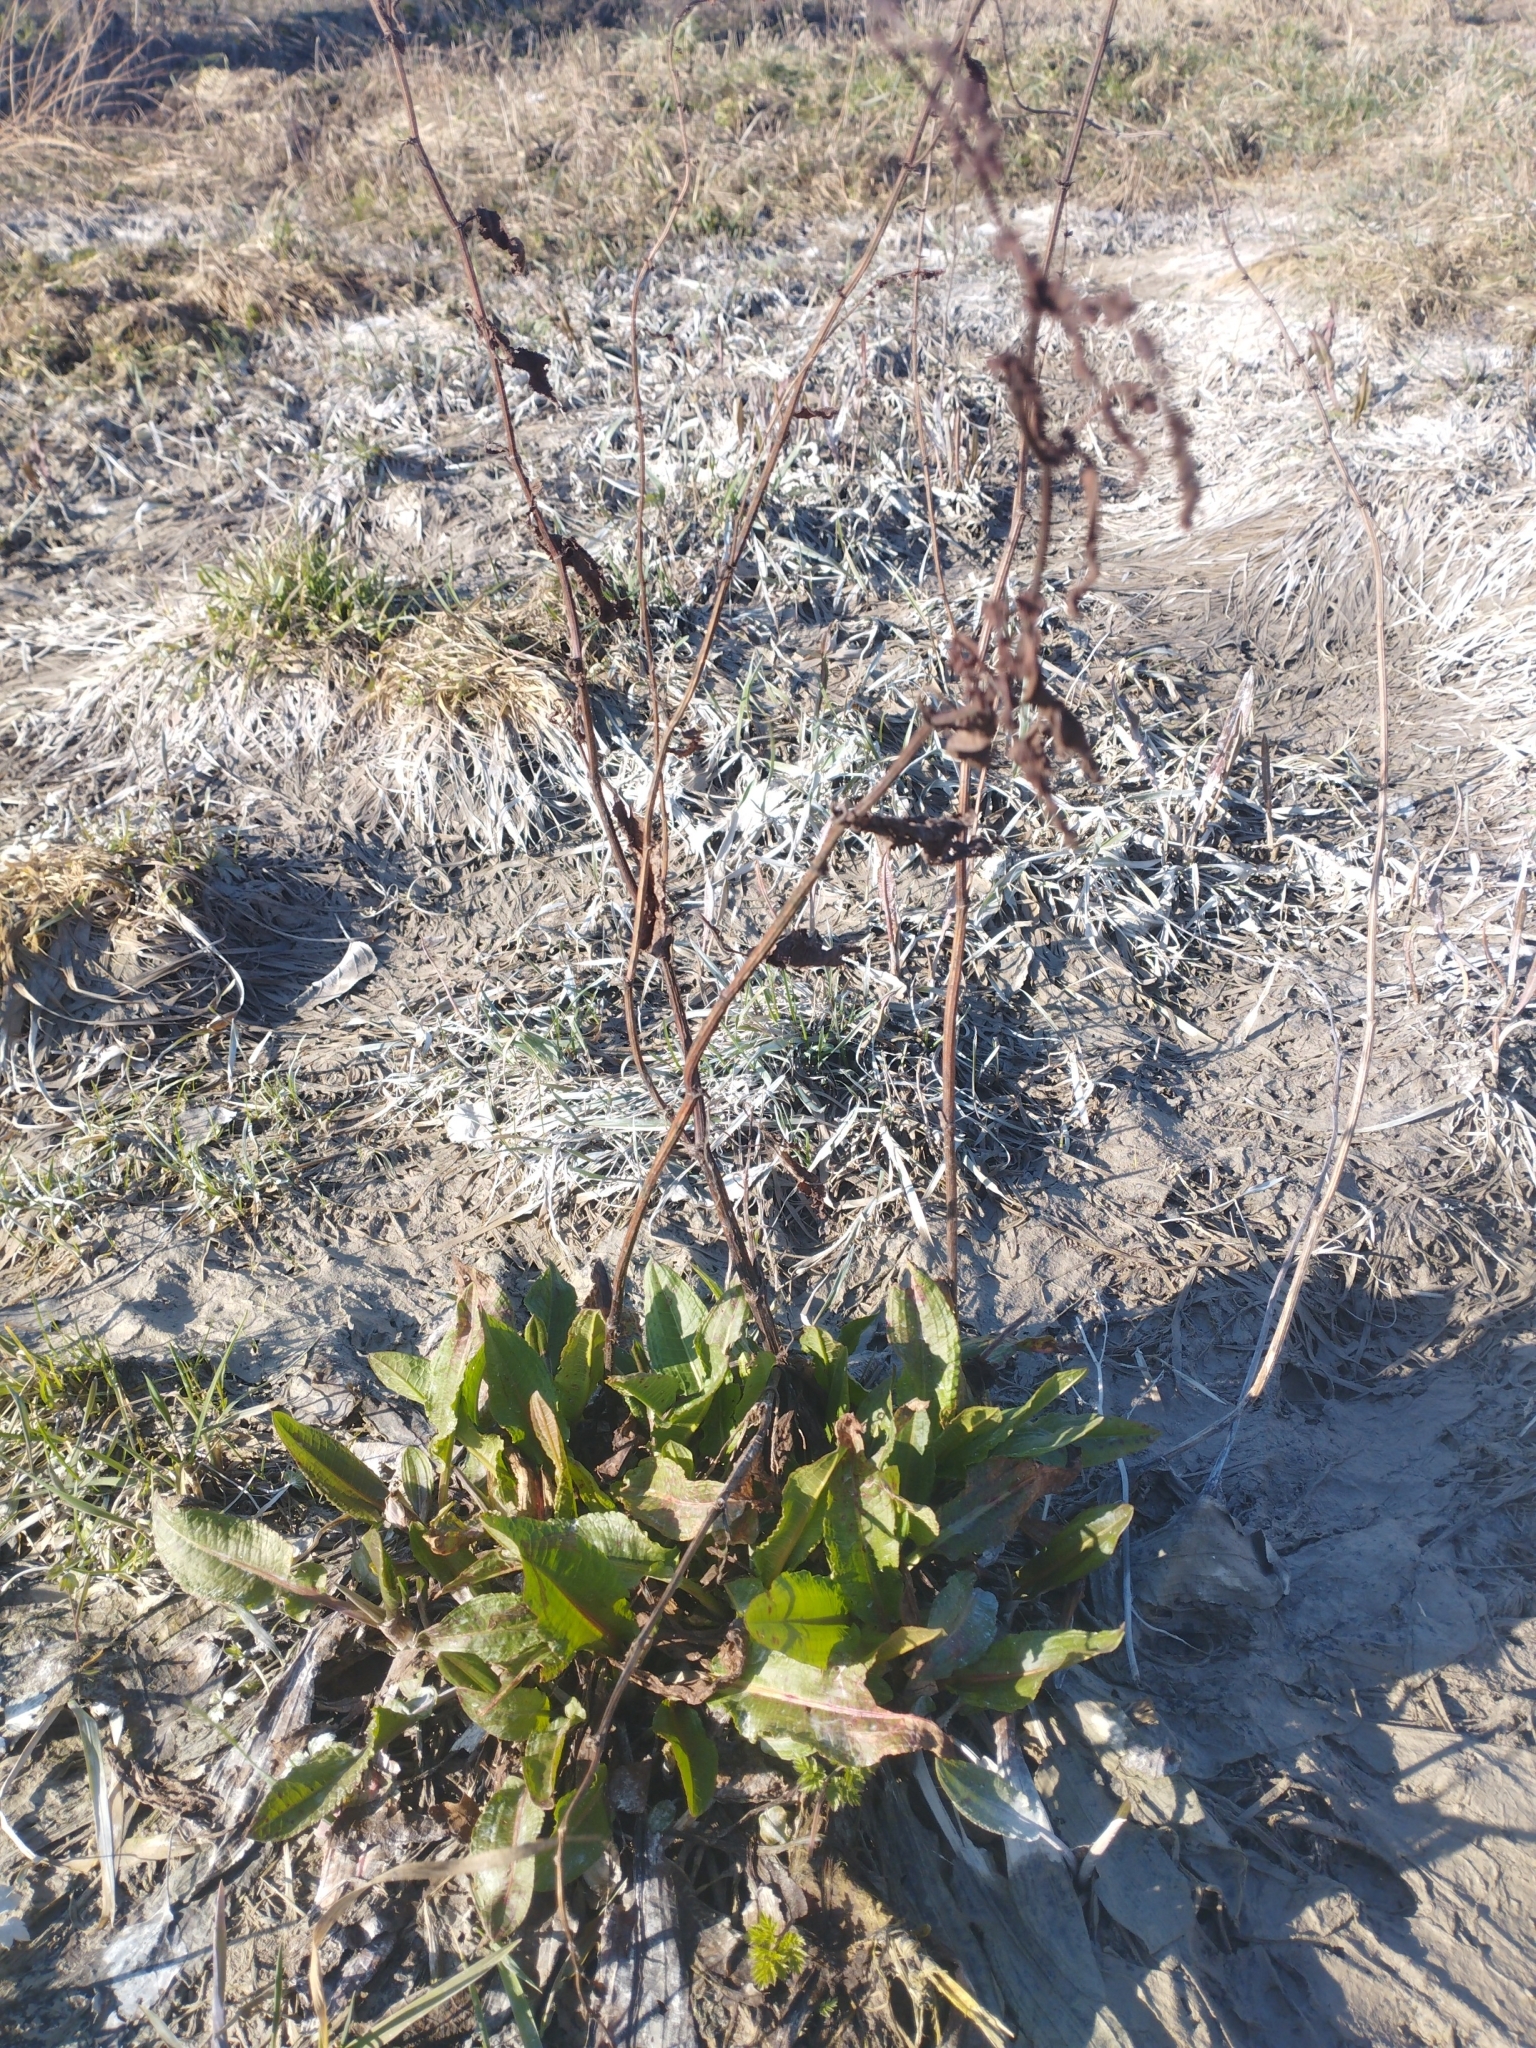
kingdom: Plantae
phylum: Tracheophyta
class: Magnoliopsida
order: Caryophyllales
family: Polygonaceae
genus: Rumex
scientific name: Rumex confertus
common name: Russian dock
